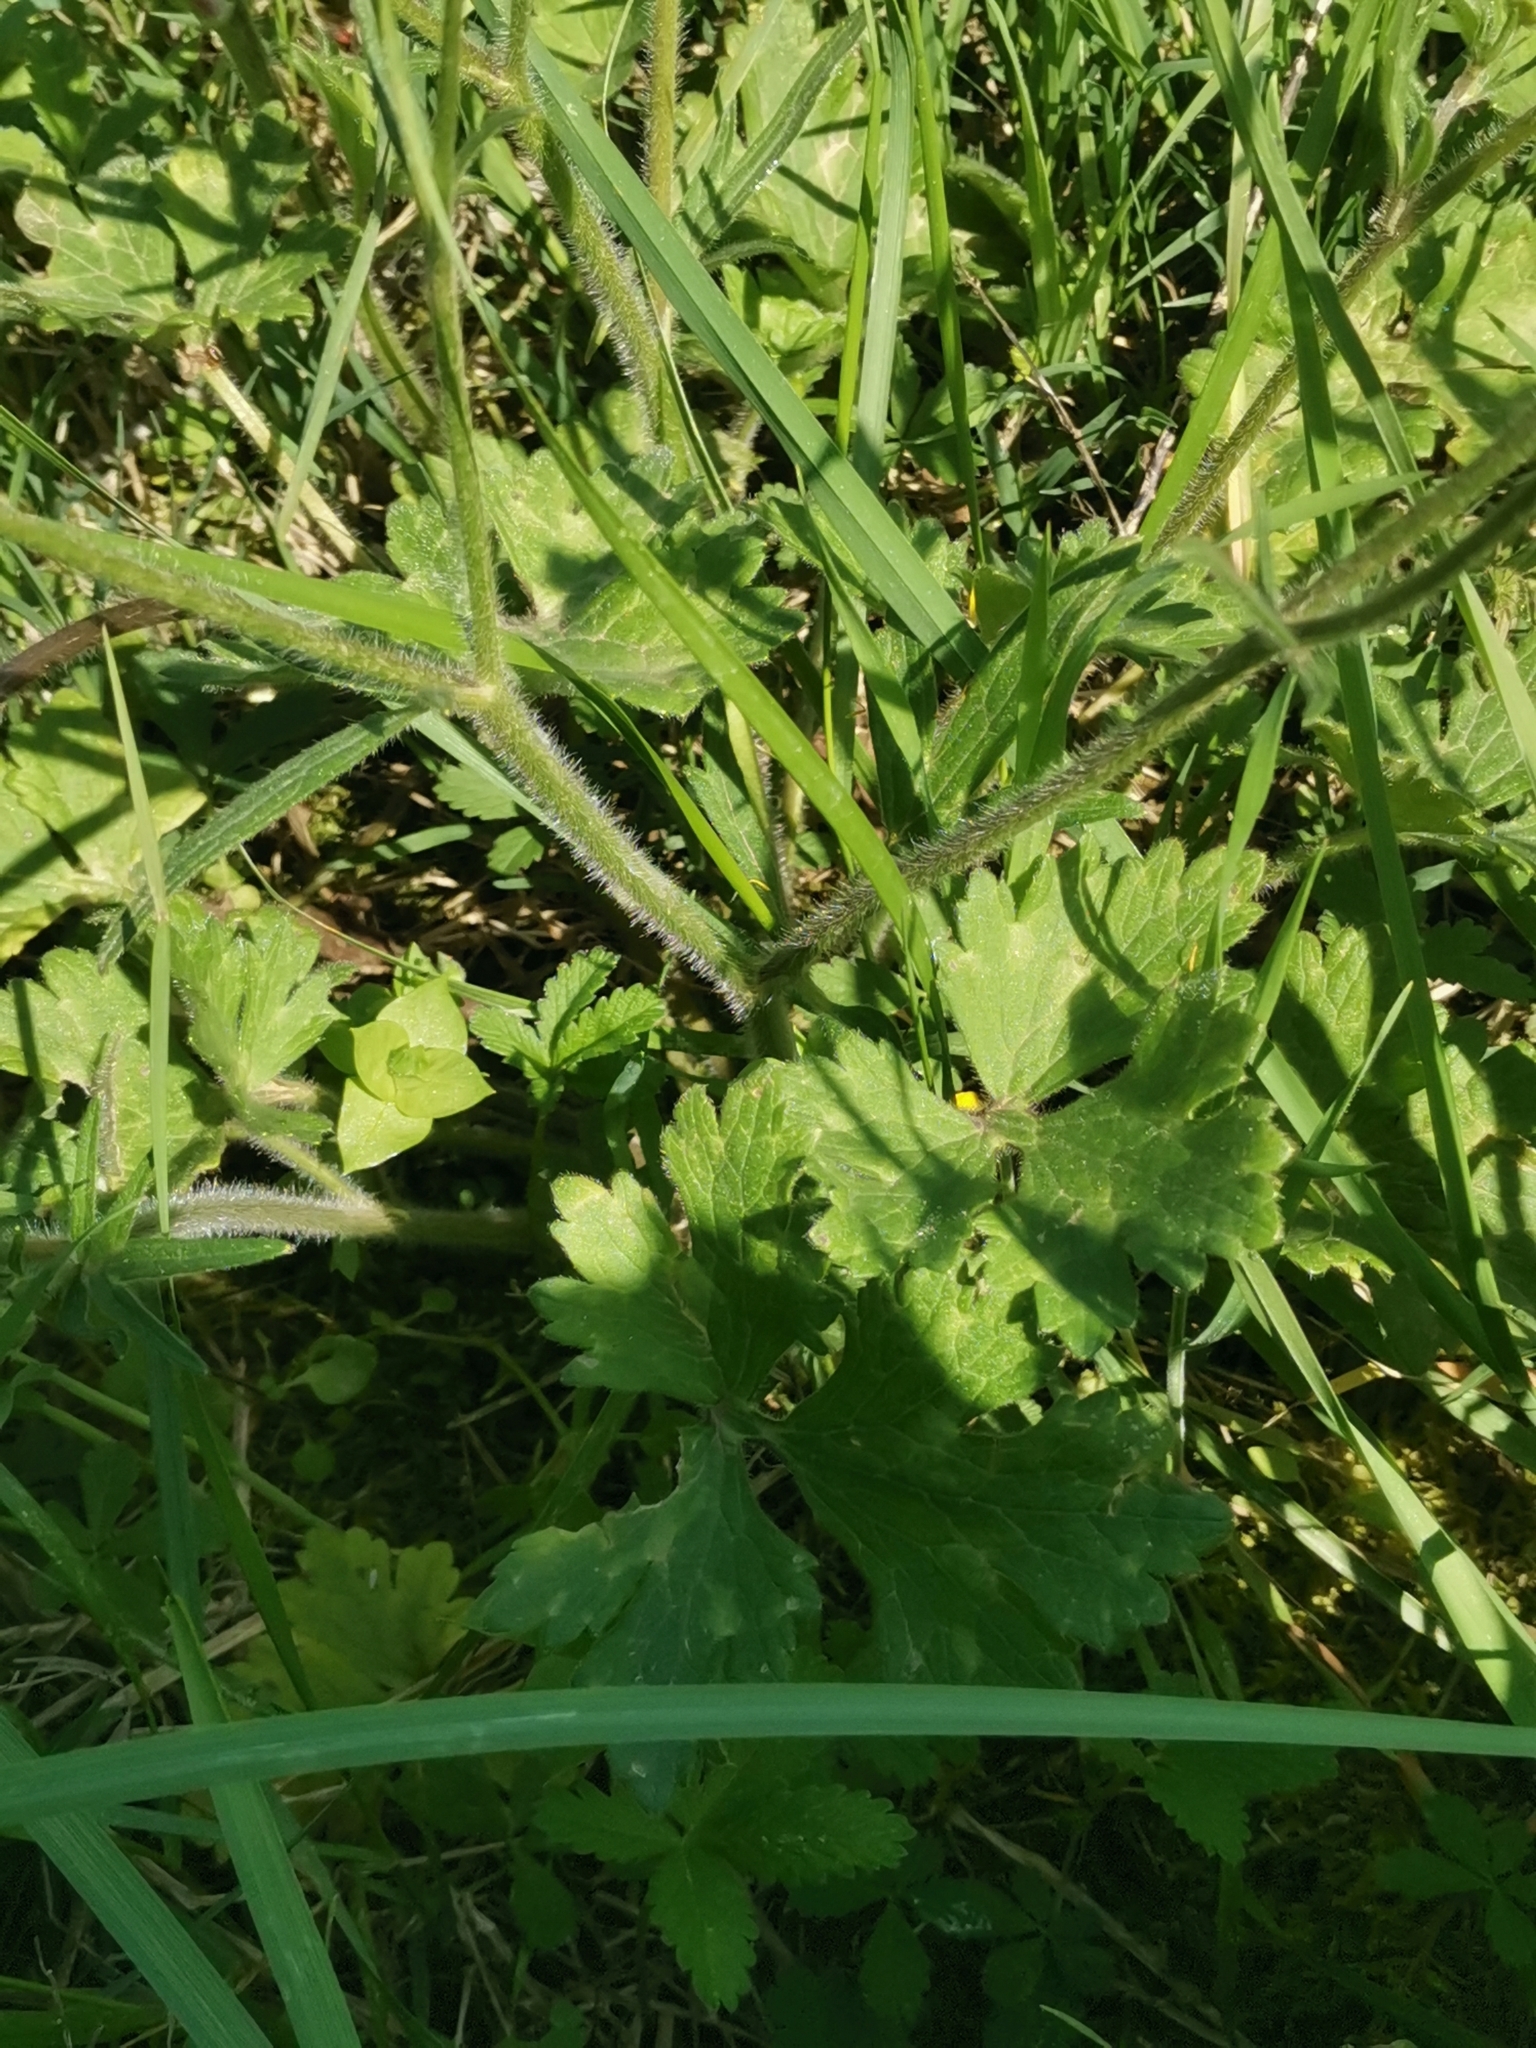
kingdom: Plantae
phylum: Tracheophyta
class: Magnoliopsida
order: Ranunculales
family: Ranunculaceae
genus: Ranunculus
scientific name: Ranunculus neapolitanus
